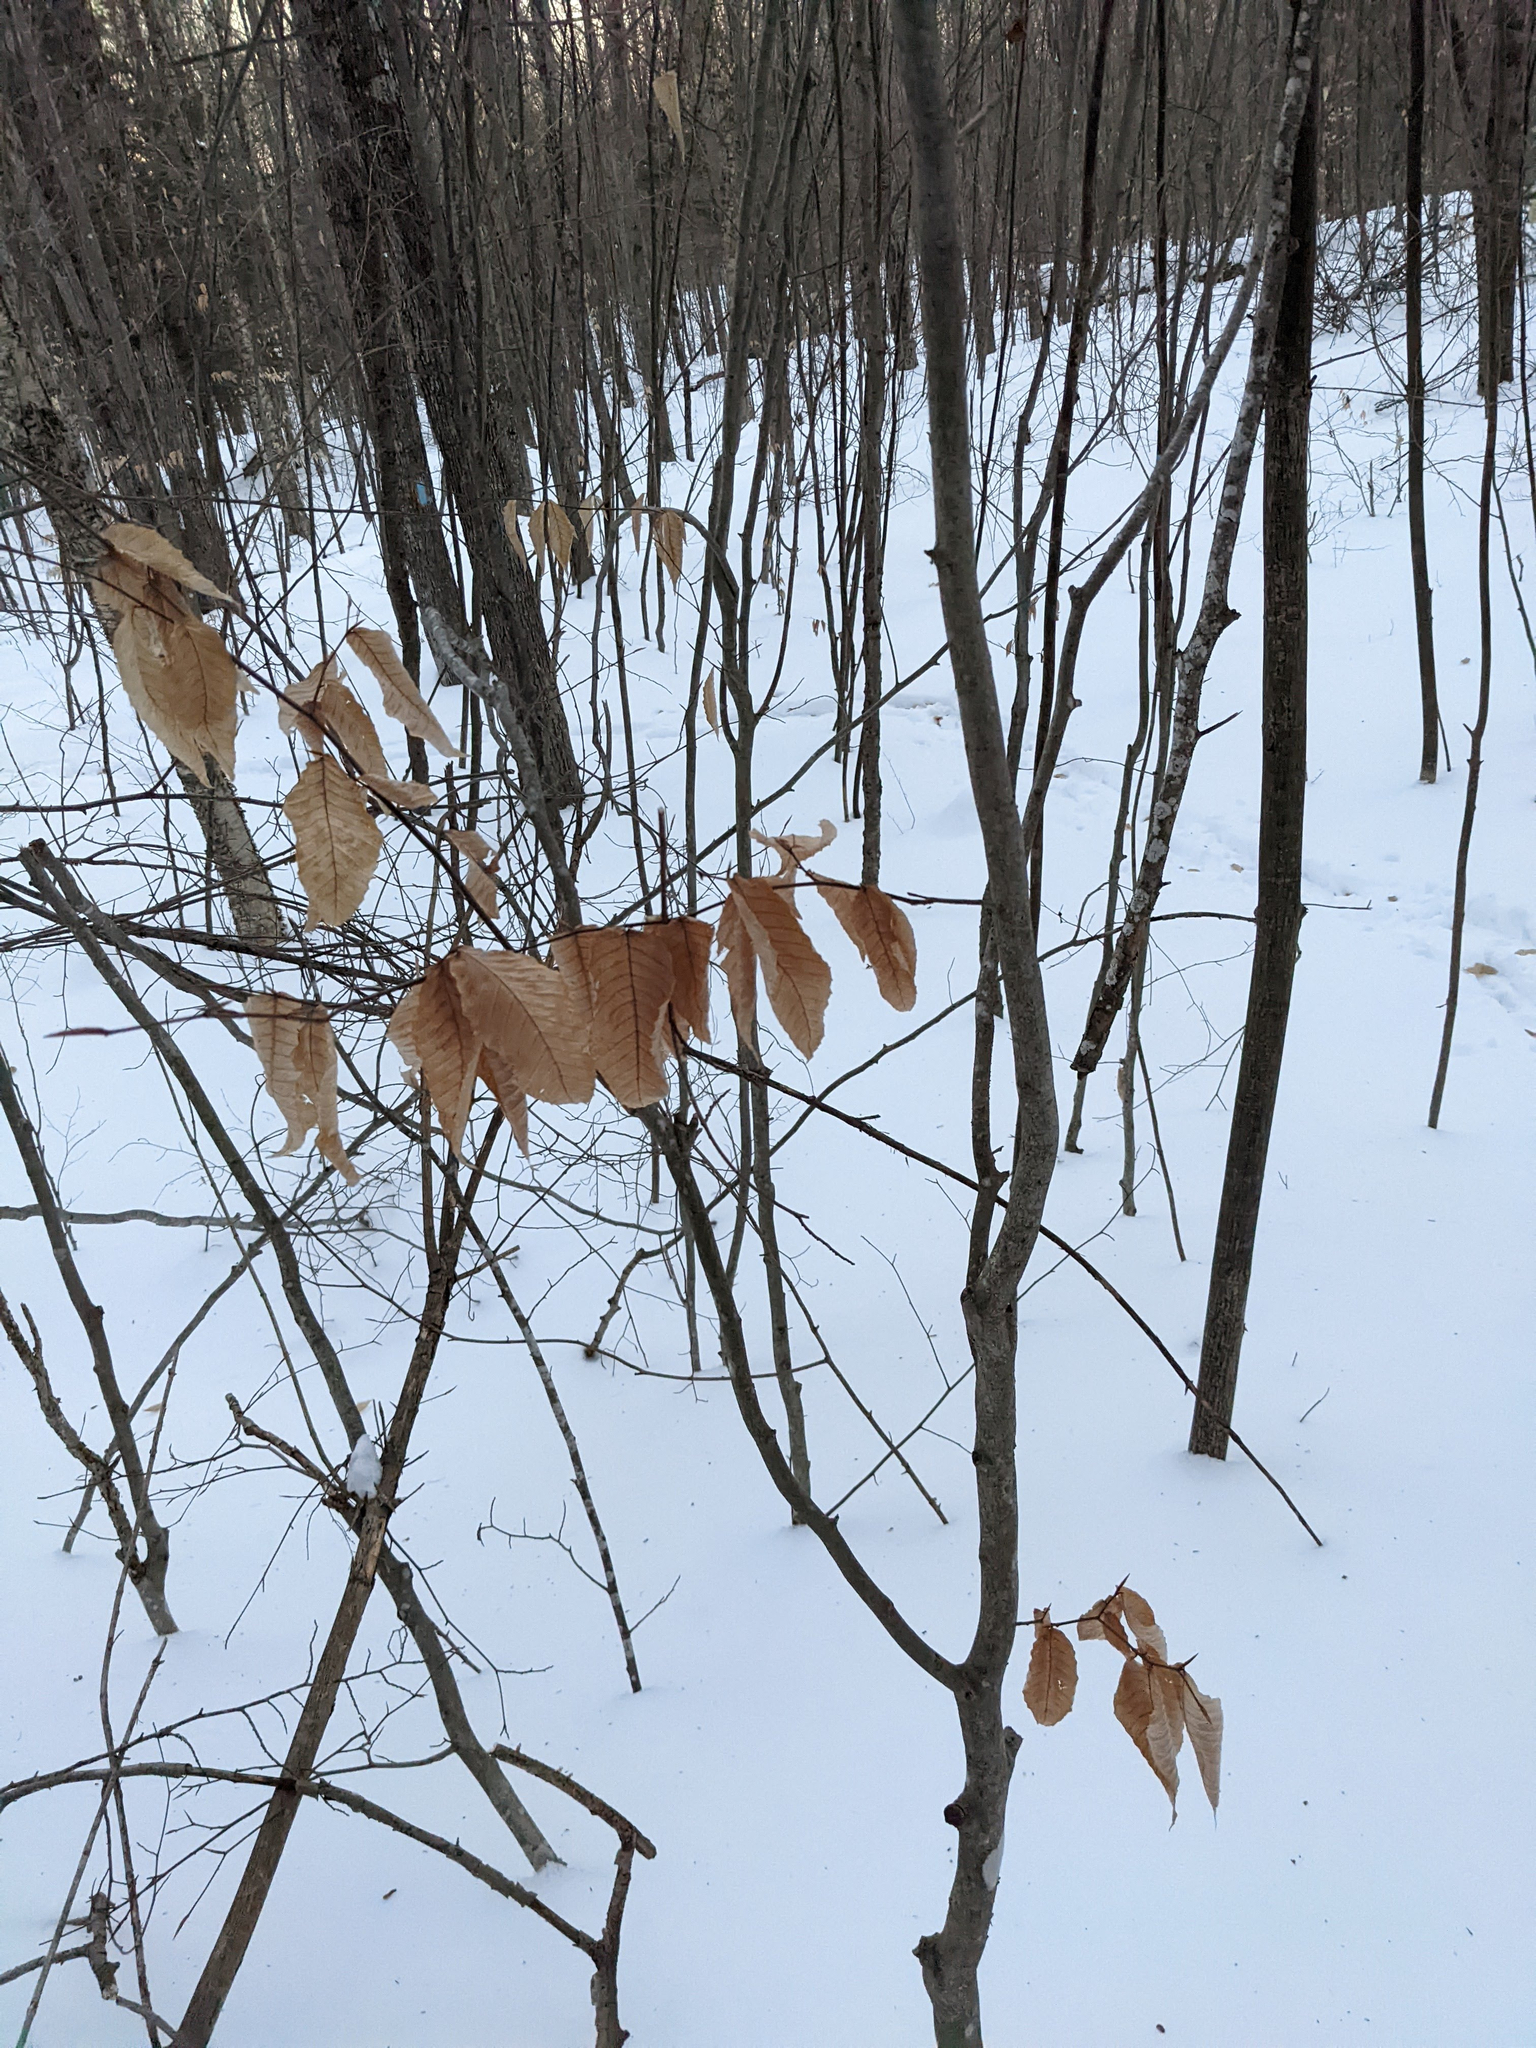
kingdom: Plantae
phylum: Tracheophyta
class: Magnoliopsida
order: Fagales
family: Fagaceae
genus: Fagus
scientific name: Fagus grandifolia
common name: American beech
